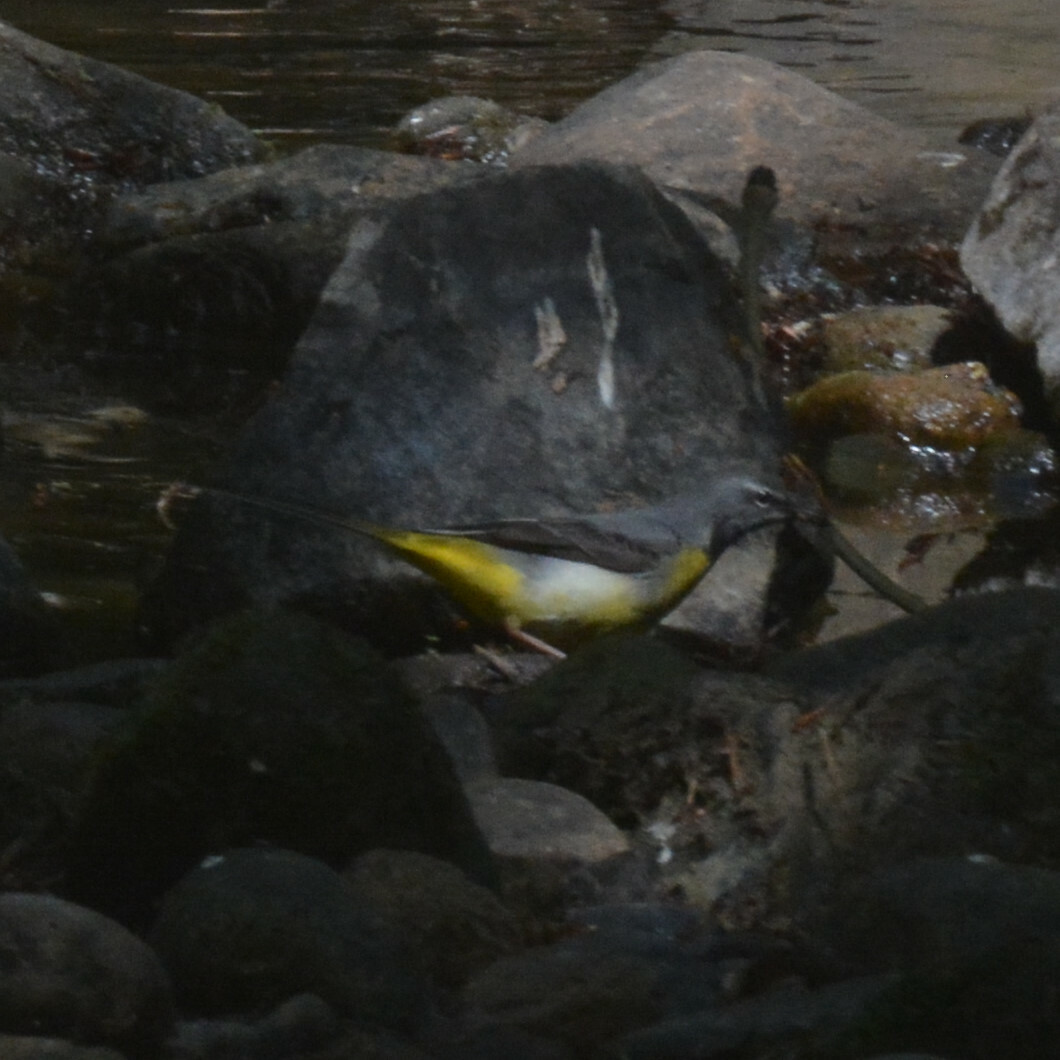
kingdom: Animalia
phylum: Chordata
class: Aves
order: Passeriformes
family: Motacillidae
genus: Motacilla
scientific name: Motacilla cinerea
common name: Grey wagtail
